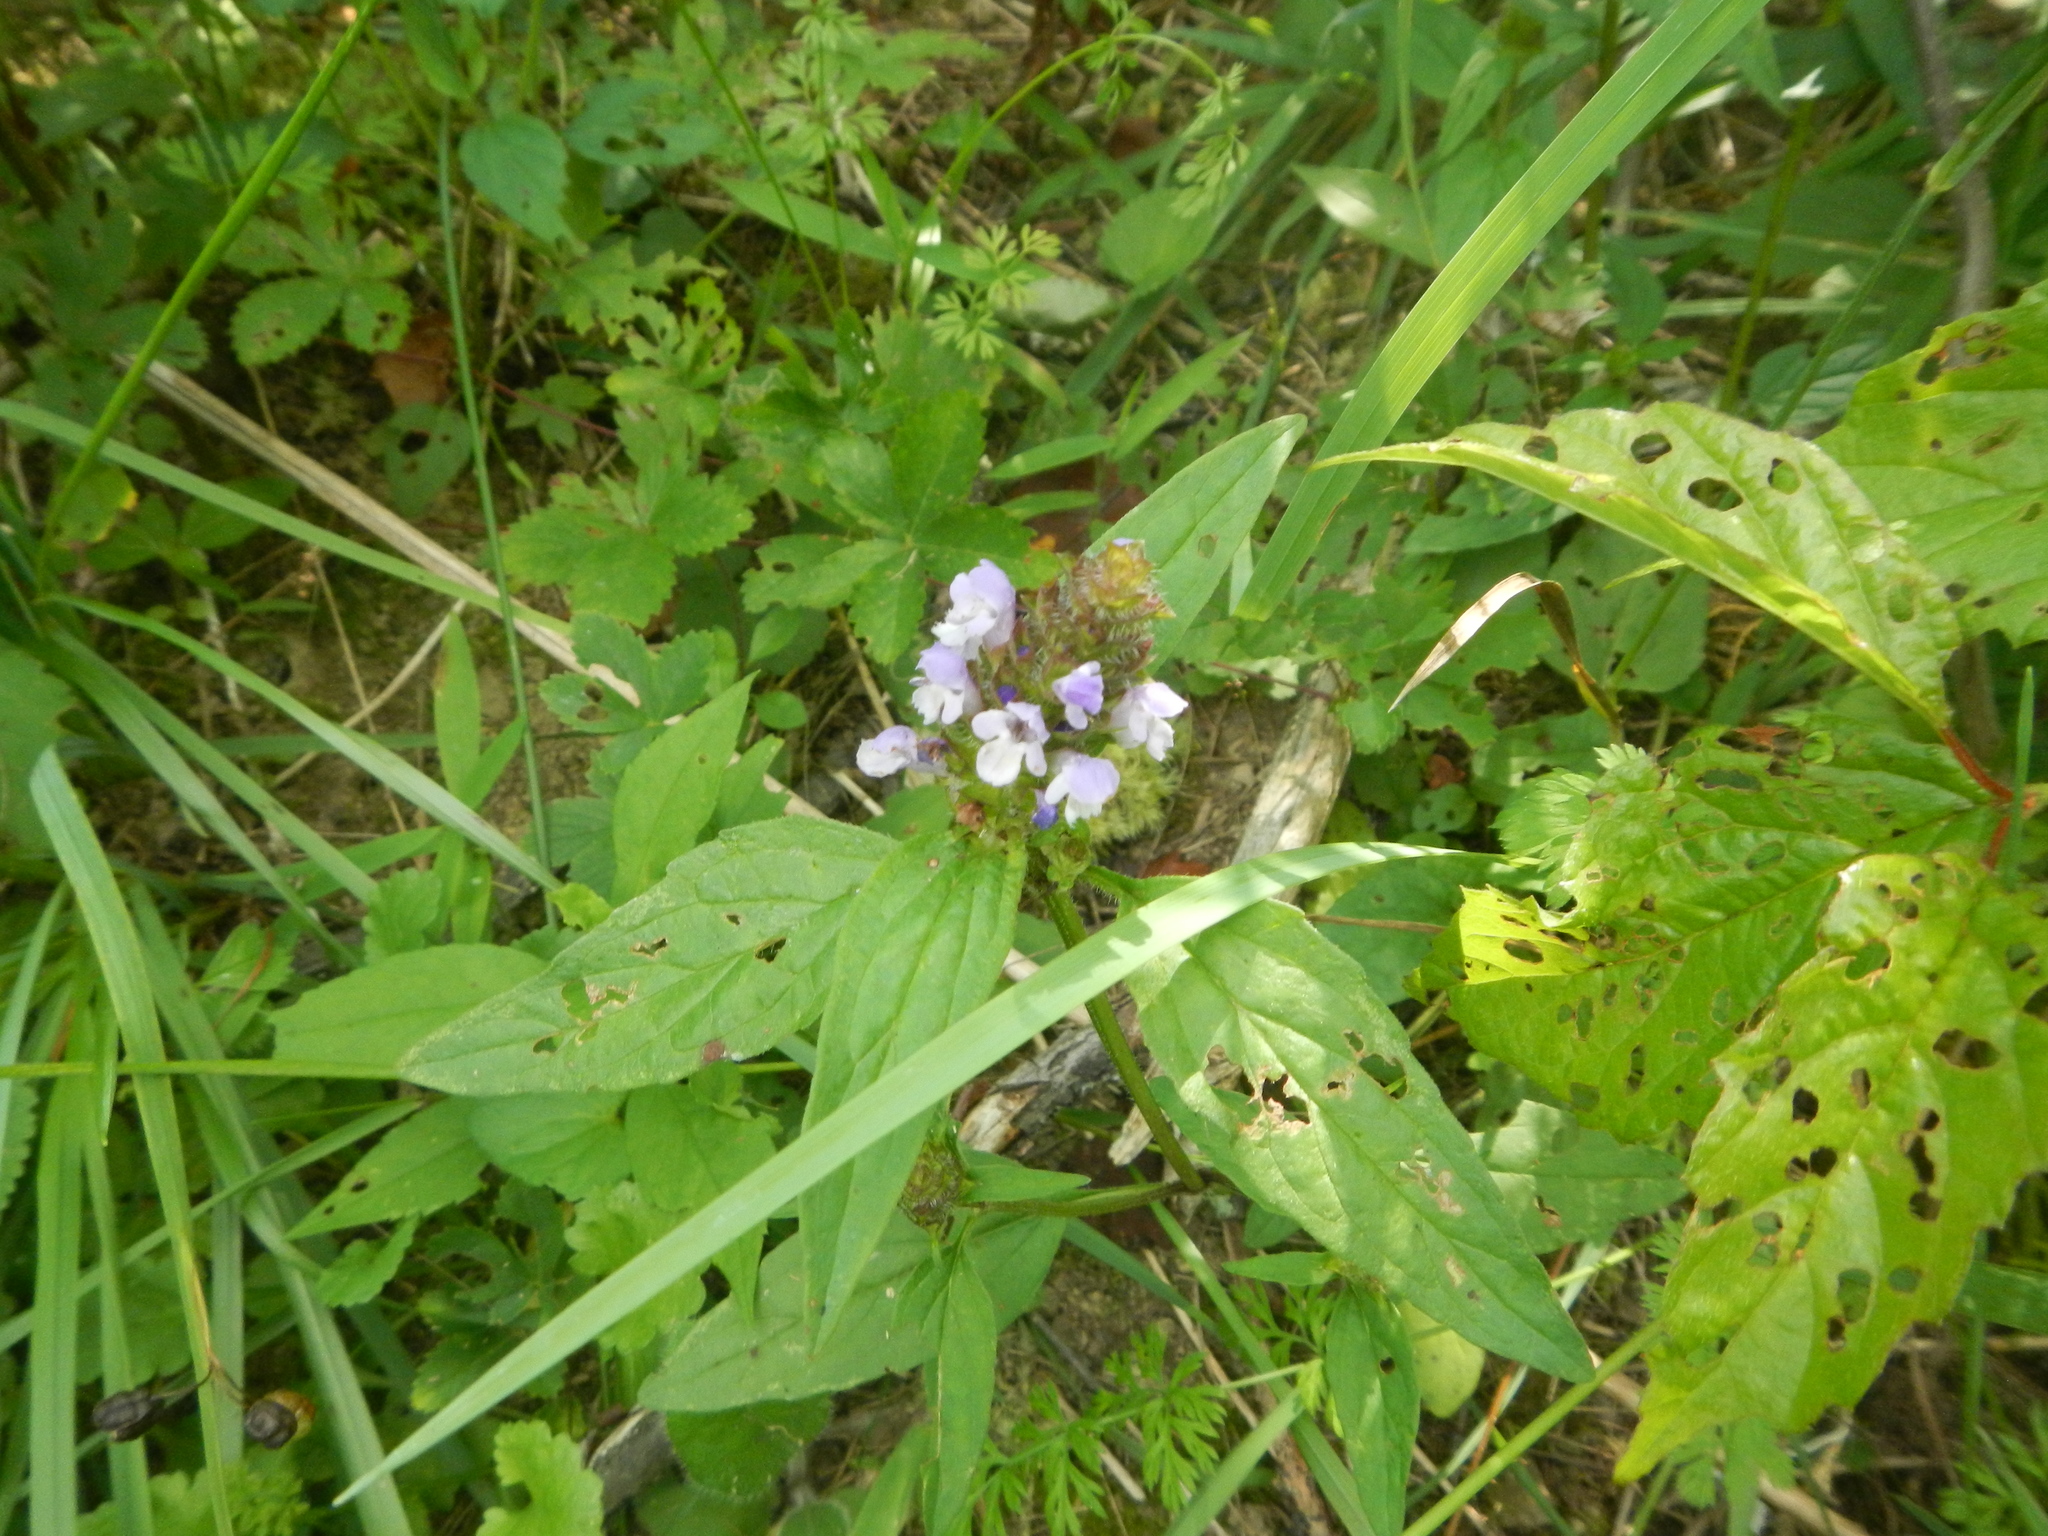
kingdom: Plantae
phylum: Tracheophyta
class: Magnoliopsida
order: Lamiales
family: Lamiaceae
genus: Prunella
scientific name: Prunella vulgaris
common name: Heal-all
